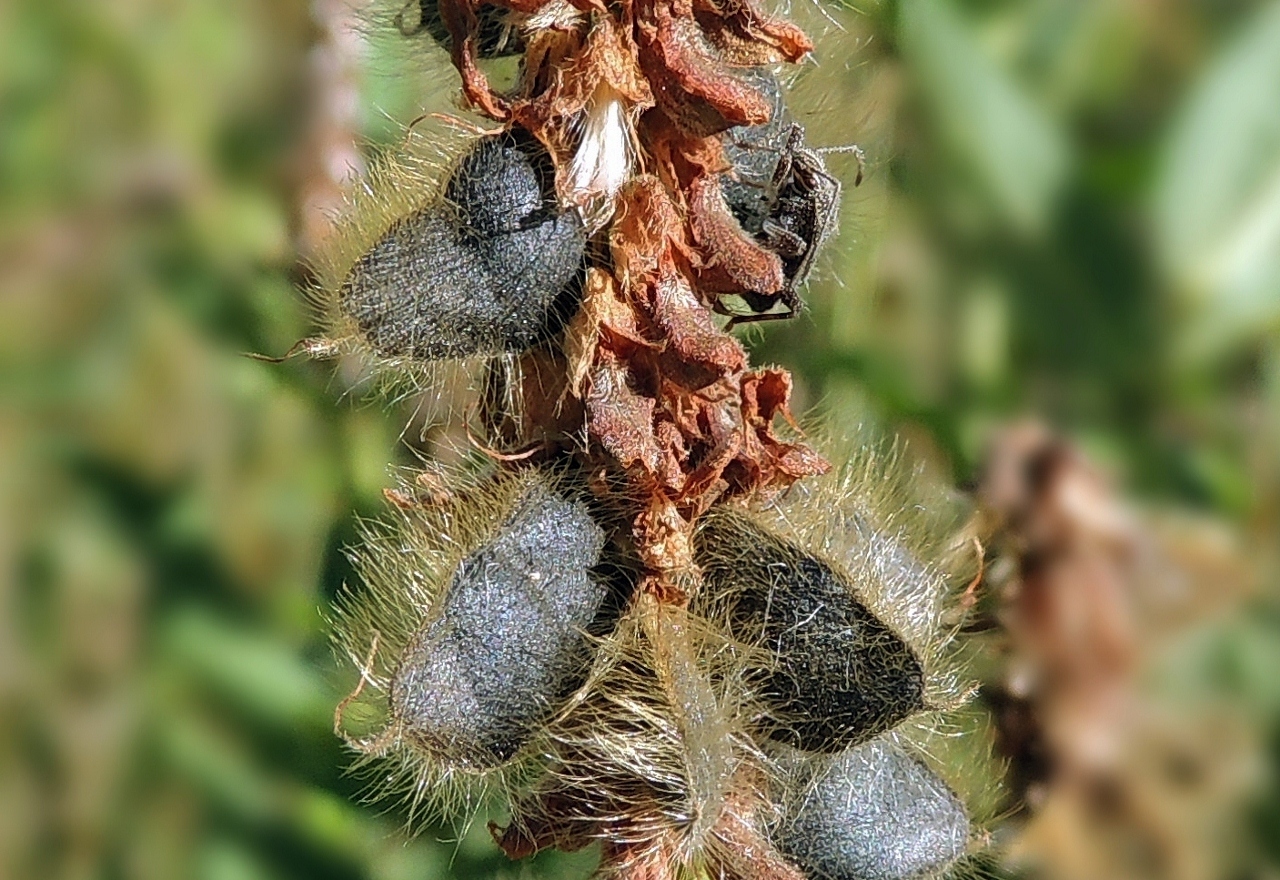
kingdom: Plantae
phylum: Tracheophyta
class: Magnoliopsida
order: Fabales
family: Fabaceae
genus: Eriosema
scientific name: Eriosema nutans
